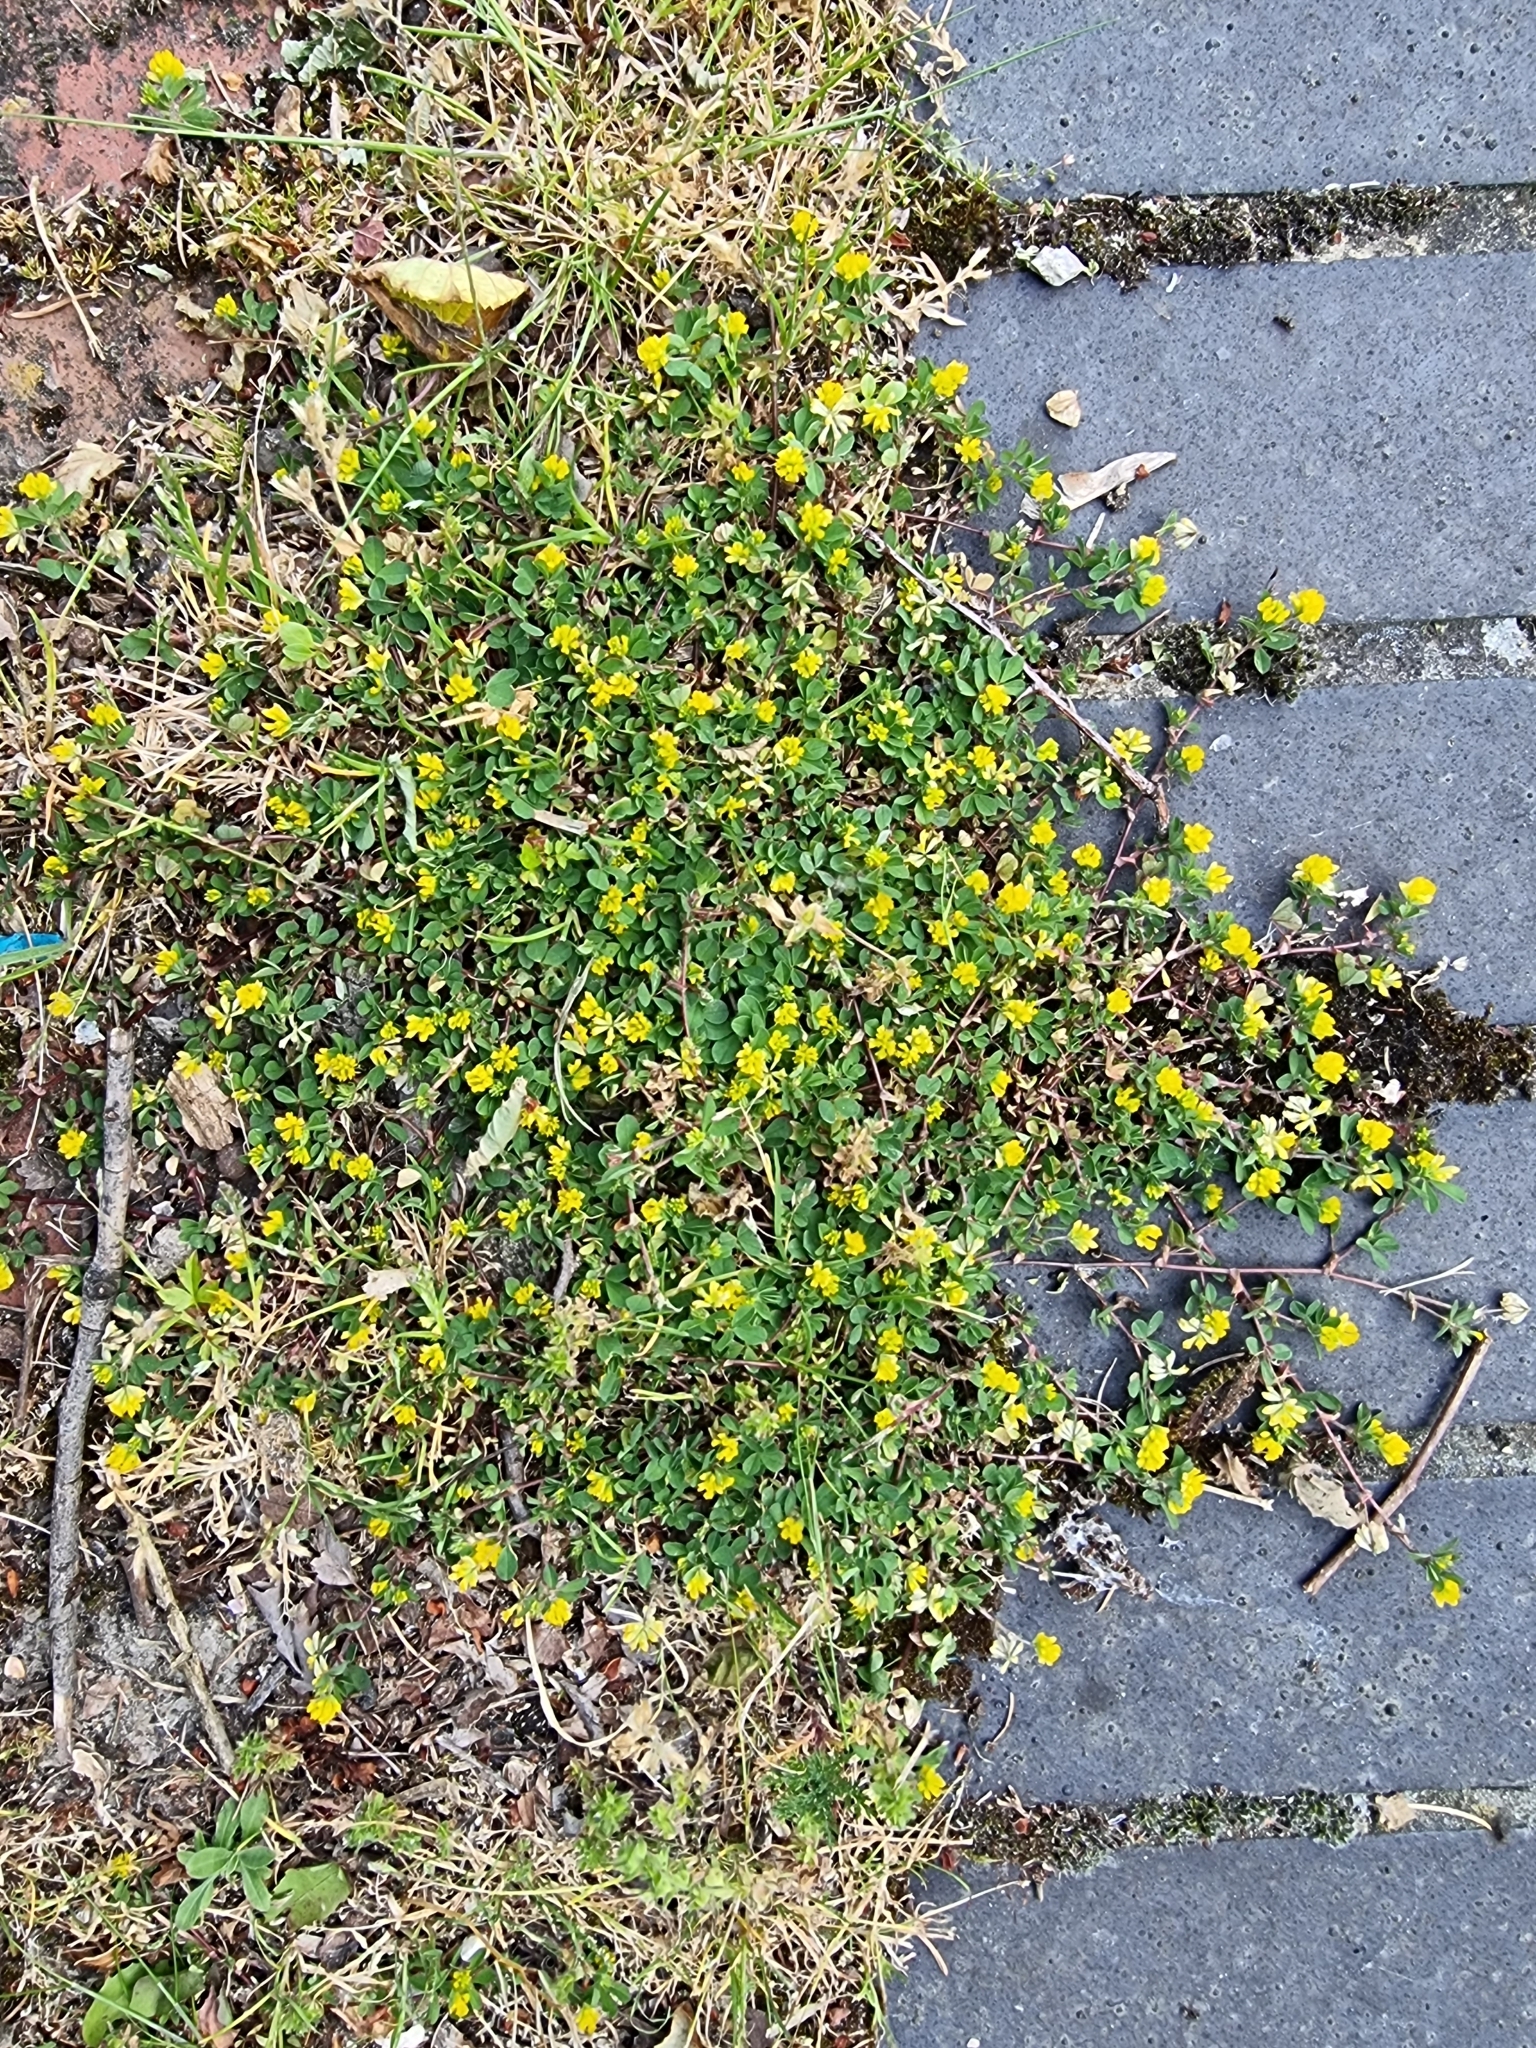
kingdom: Plantae
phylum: Tracheophyta
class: Magnoliopsida
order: Fabales
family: Fabaceae
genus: Trifolium
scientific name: Trifolium dubium
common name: Suckling clover
